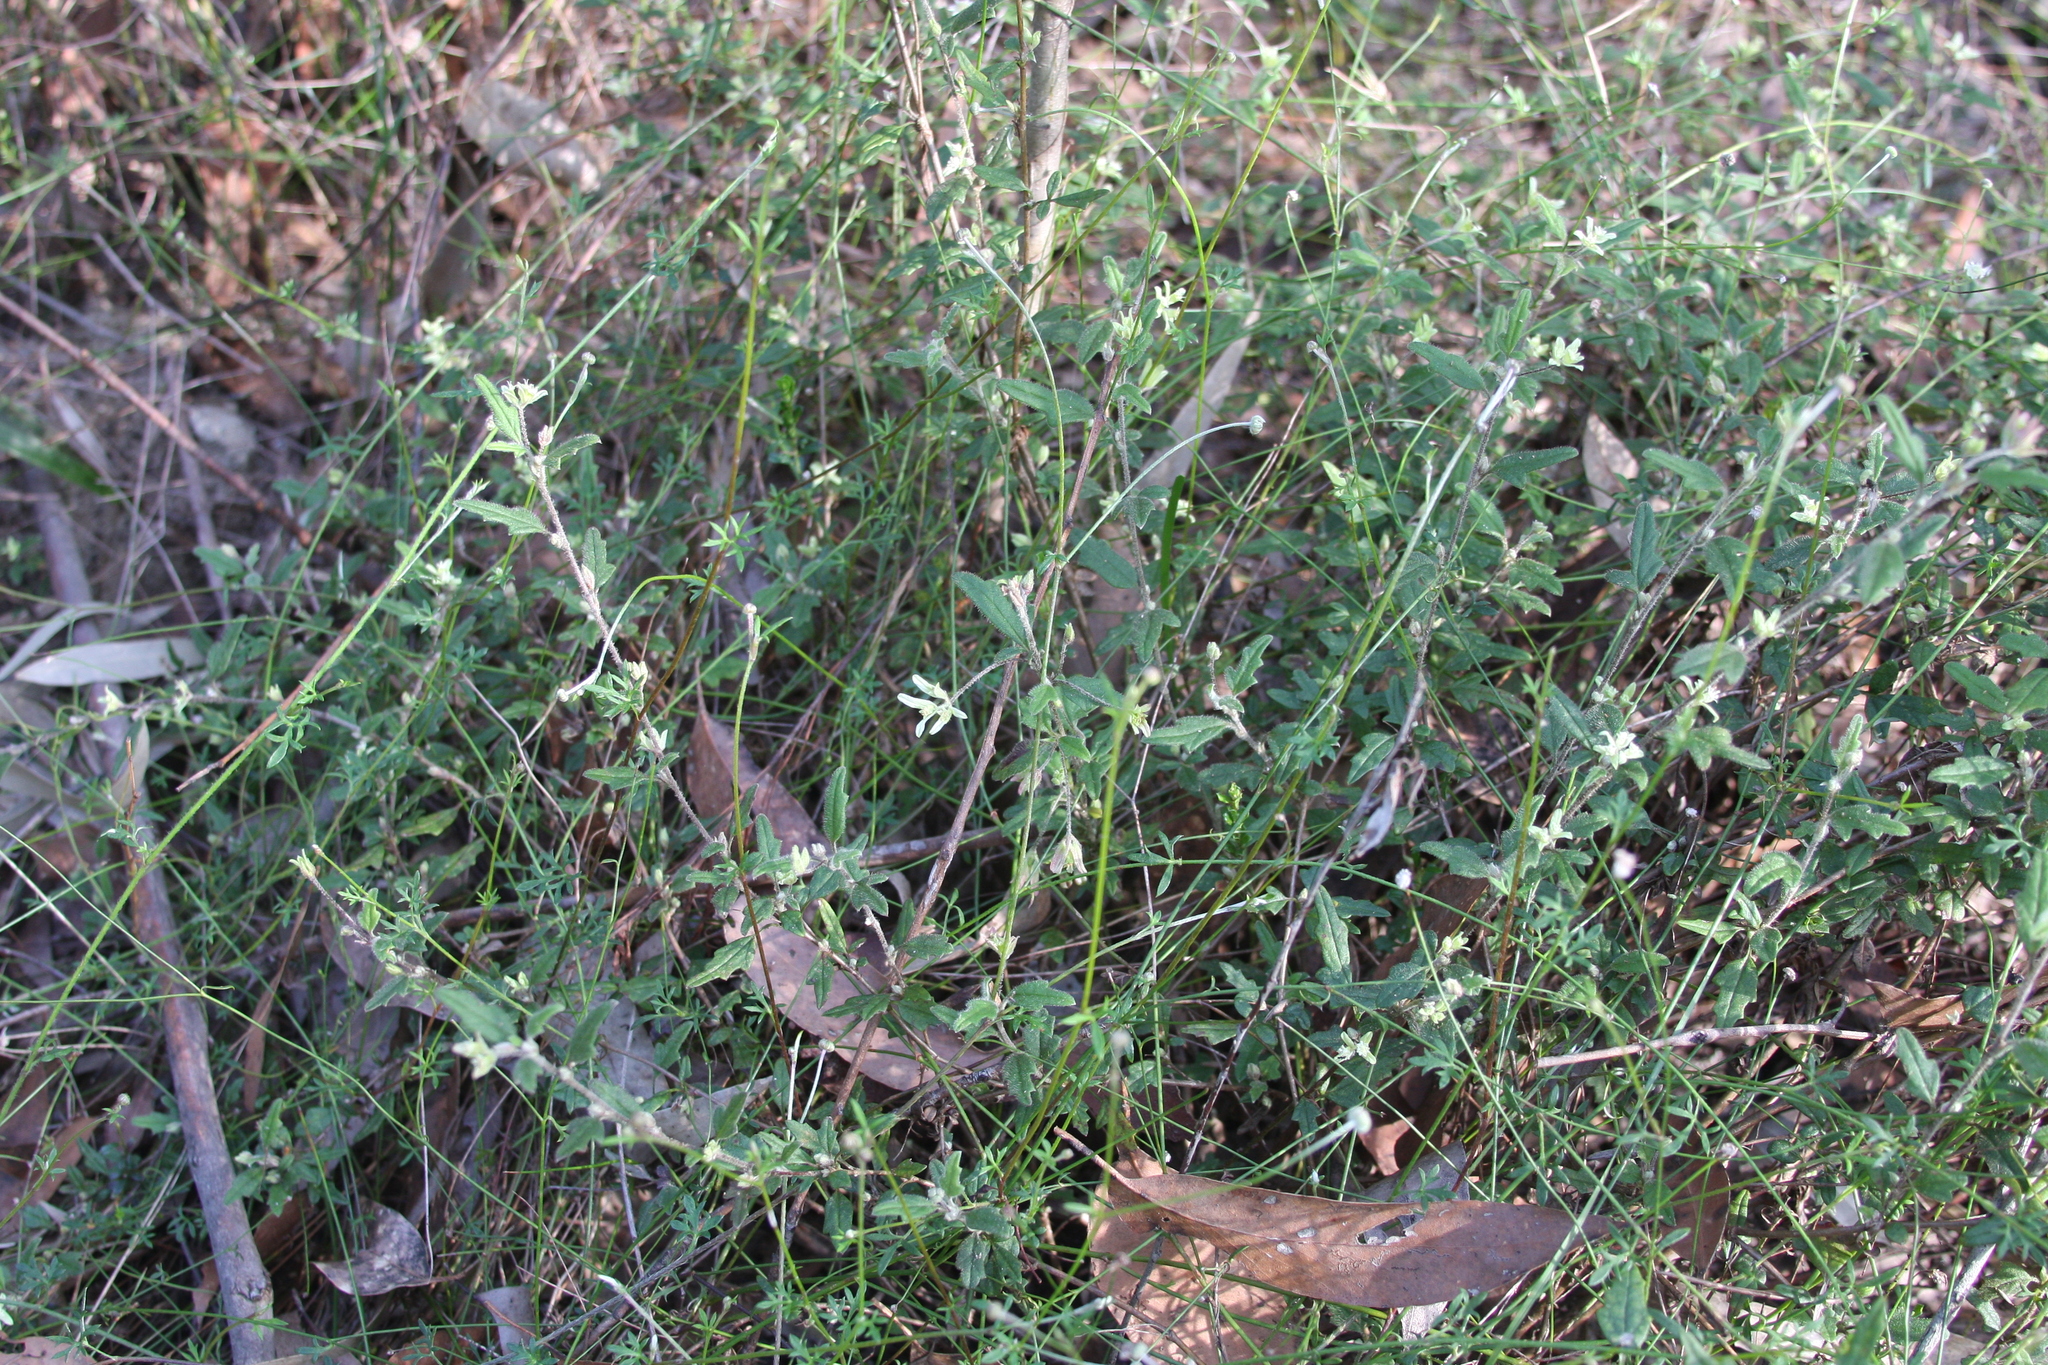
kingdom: Plantae
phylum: Tracheophyta
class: Magnoliopsida
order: Apiales
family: Apiaceae
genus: Xanthosia
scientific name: Xanthosia pilosa
